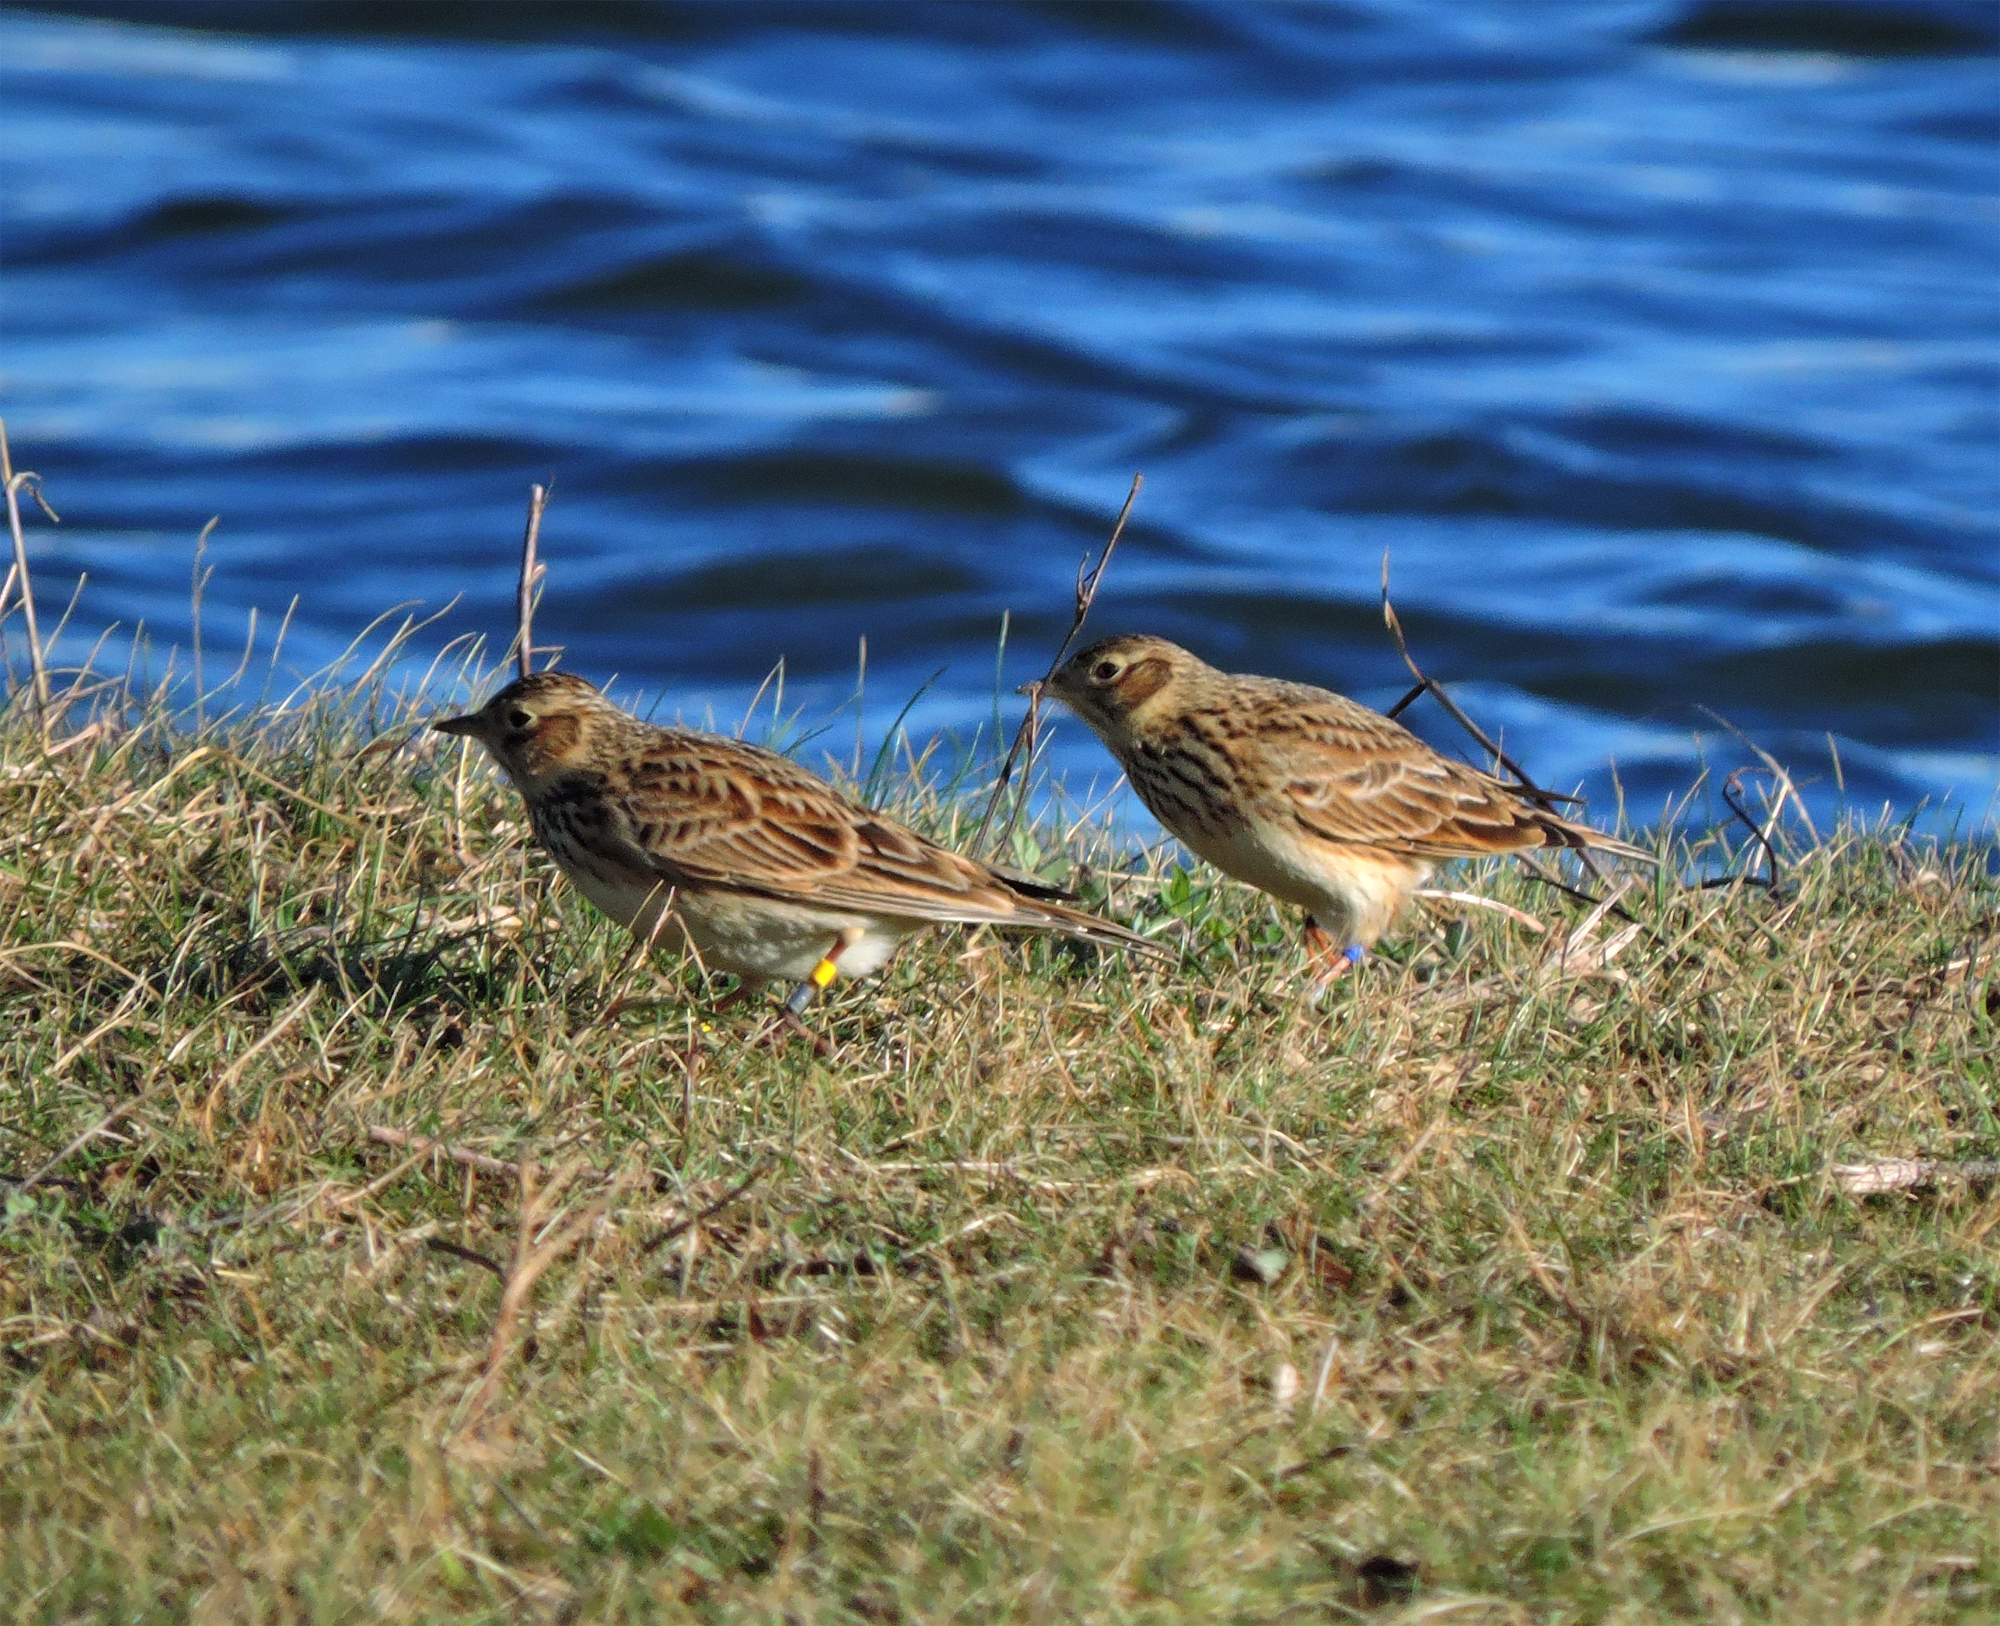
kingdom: Animalia
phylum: Chordata
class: Aves
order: Passeriformes
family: Alaudidae
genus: Alauda
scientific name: Alauda arvensis
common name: Eurasian skylark
